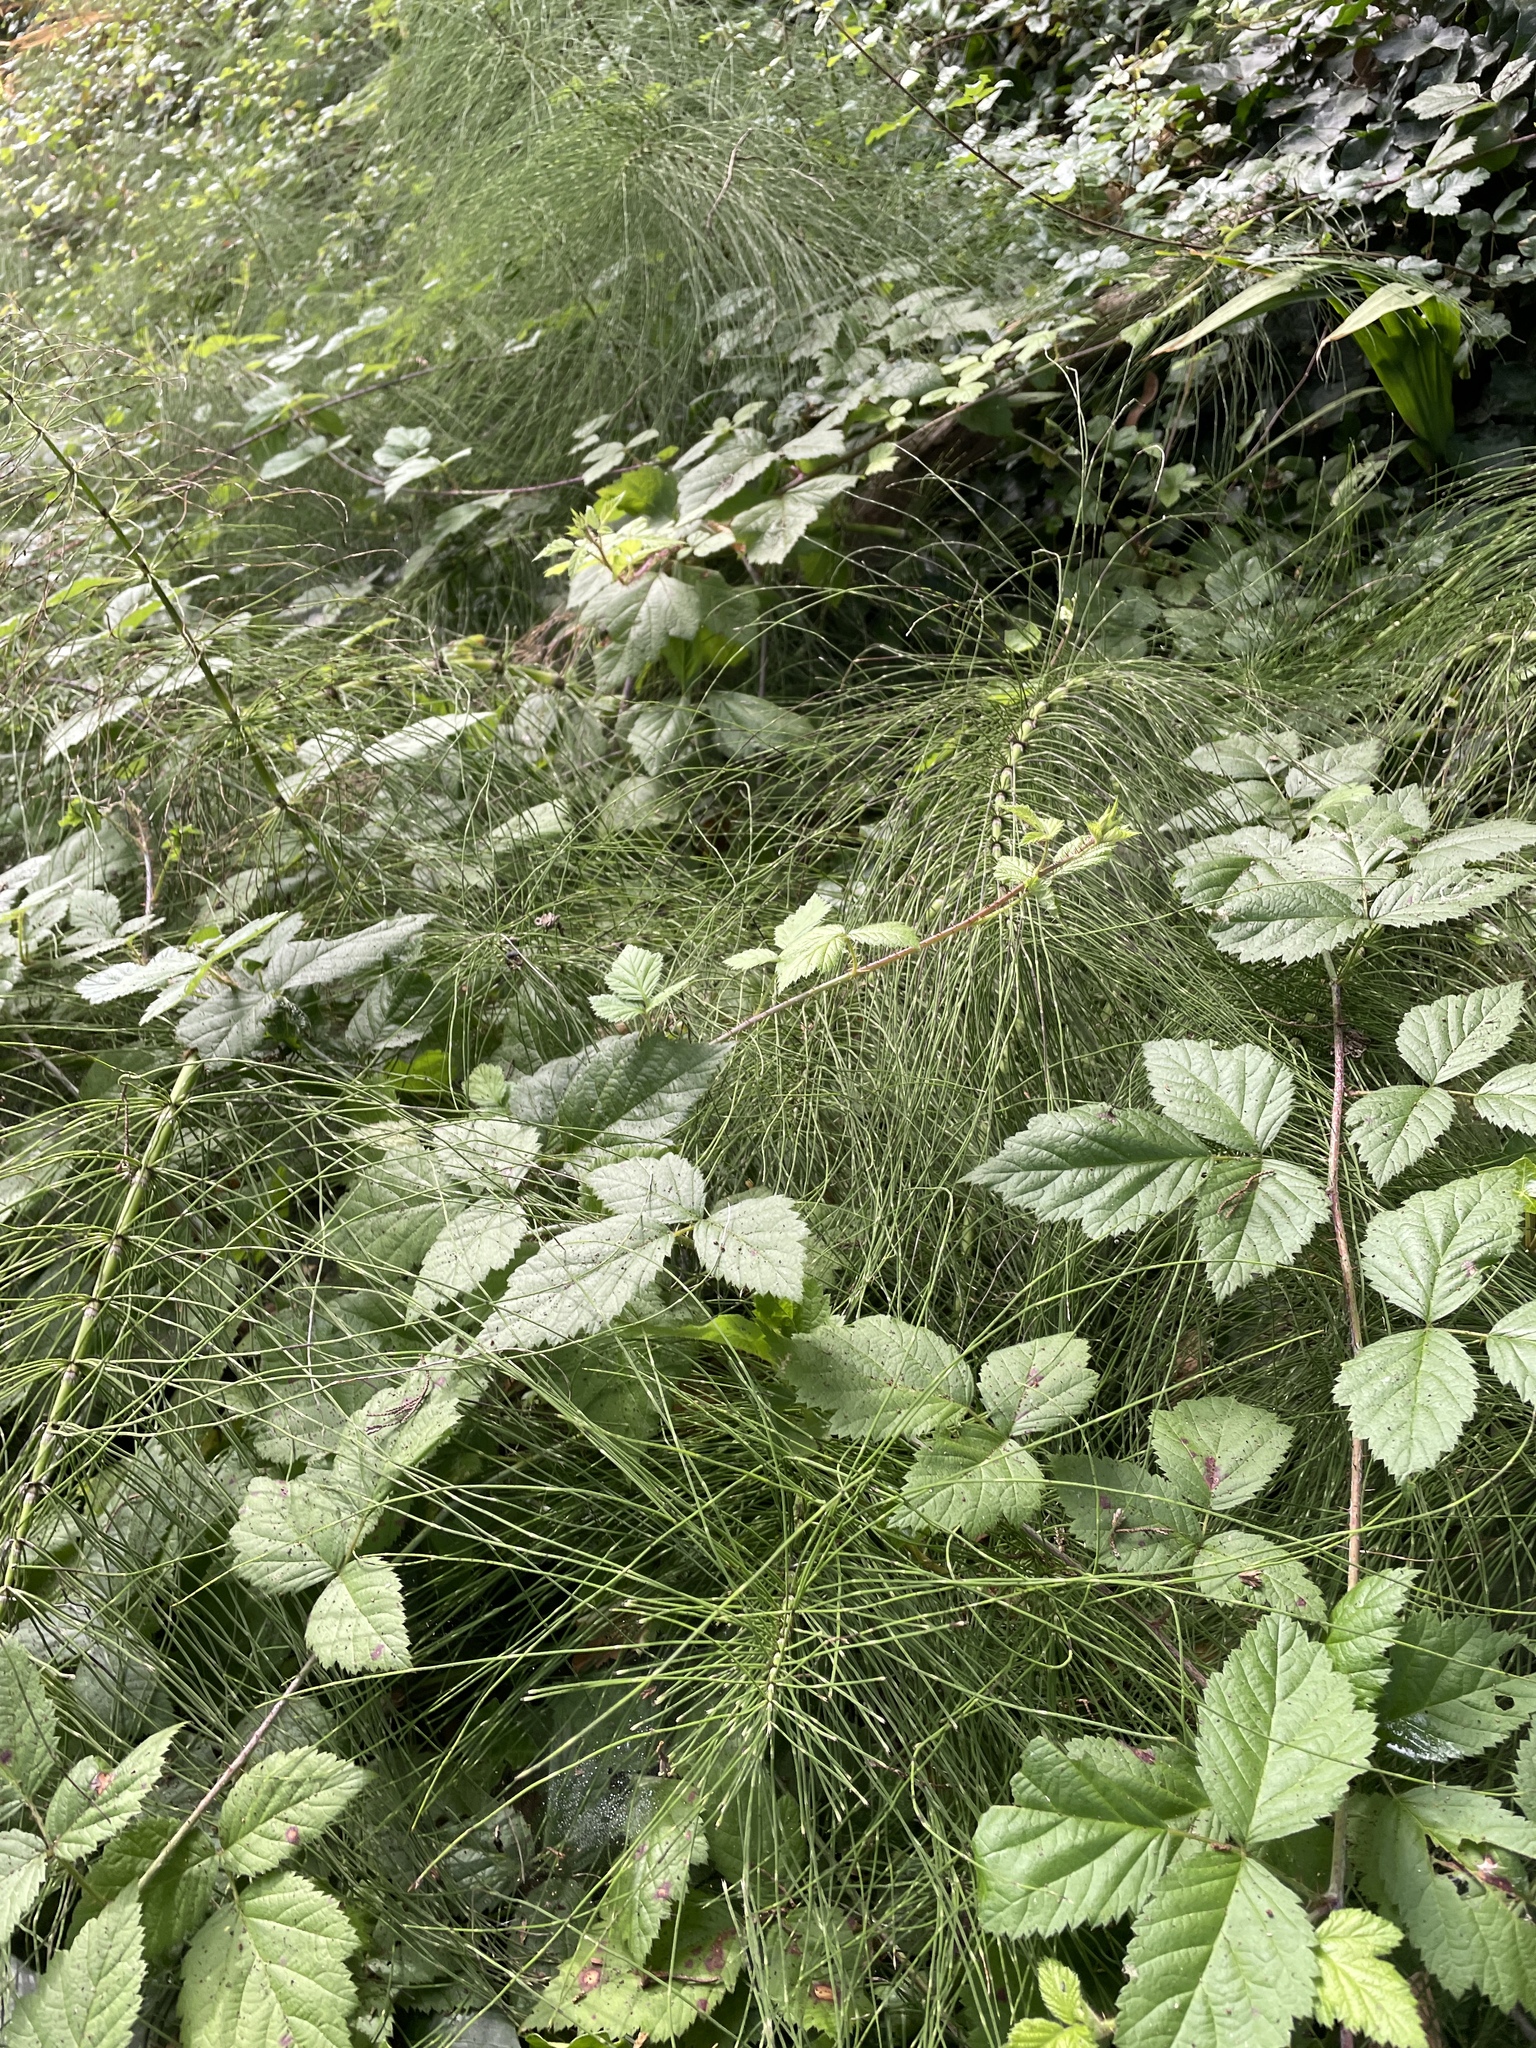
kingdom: Plantae
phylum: Tracheophyta
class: Polypodiopsida
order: Equisetales
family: Equisetaceae
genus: Equisetum
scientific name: Equisetum braunii
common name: Braun's horsetail
